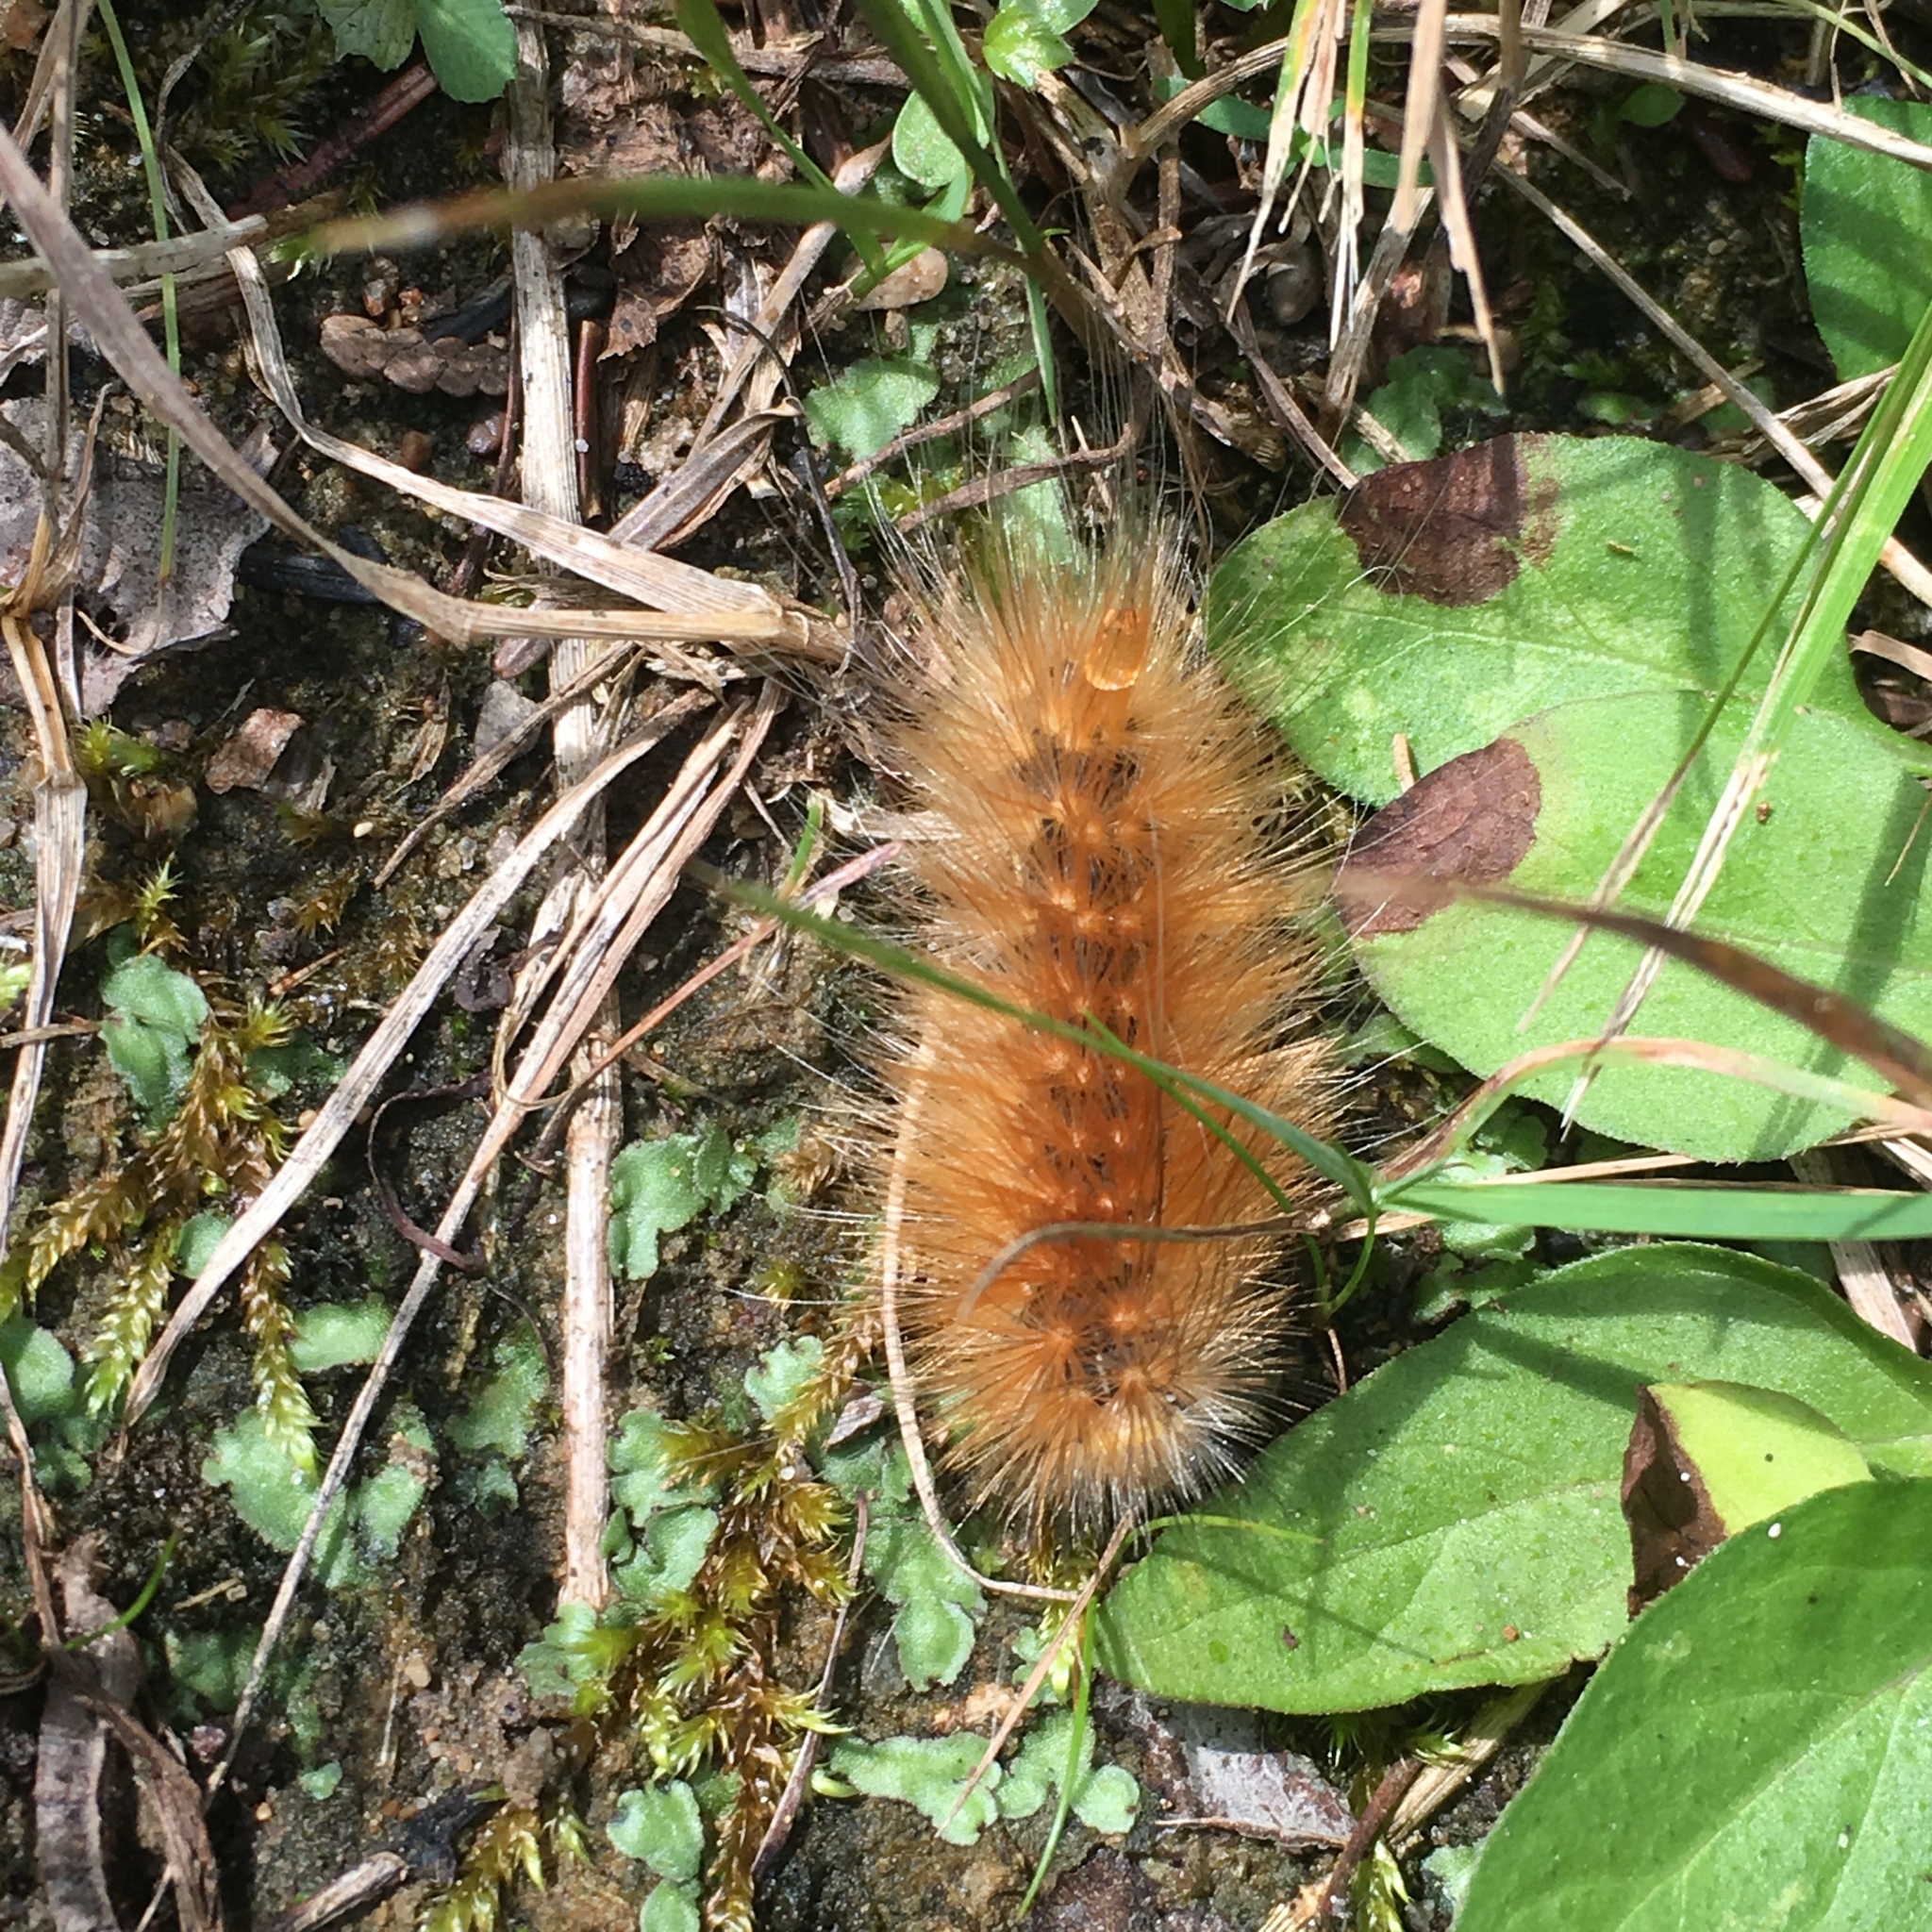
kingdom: Animalia
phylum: Arthropoda
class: Insecta
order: Lepidoptera
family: Erebidae
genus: Spilosoma
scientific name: Spilosoma virginica
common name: Virginia tiger moth
